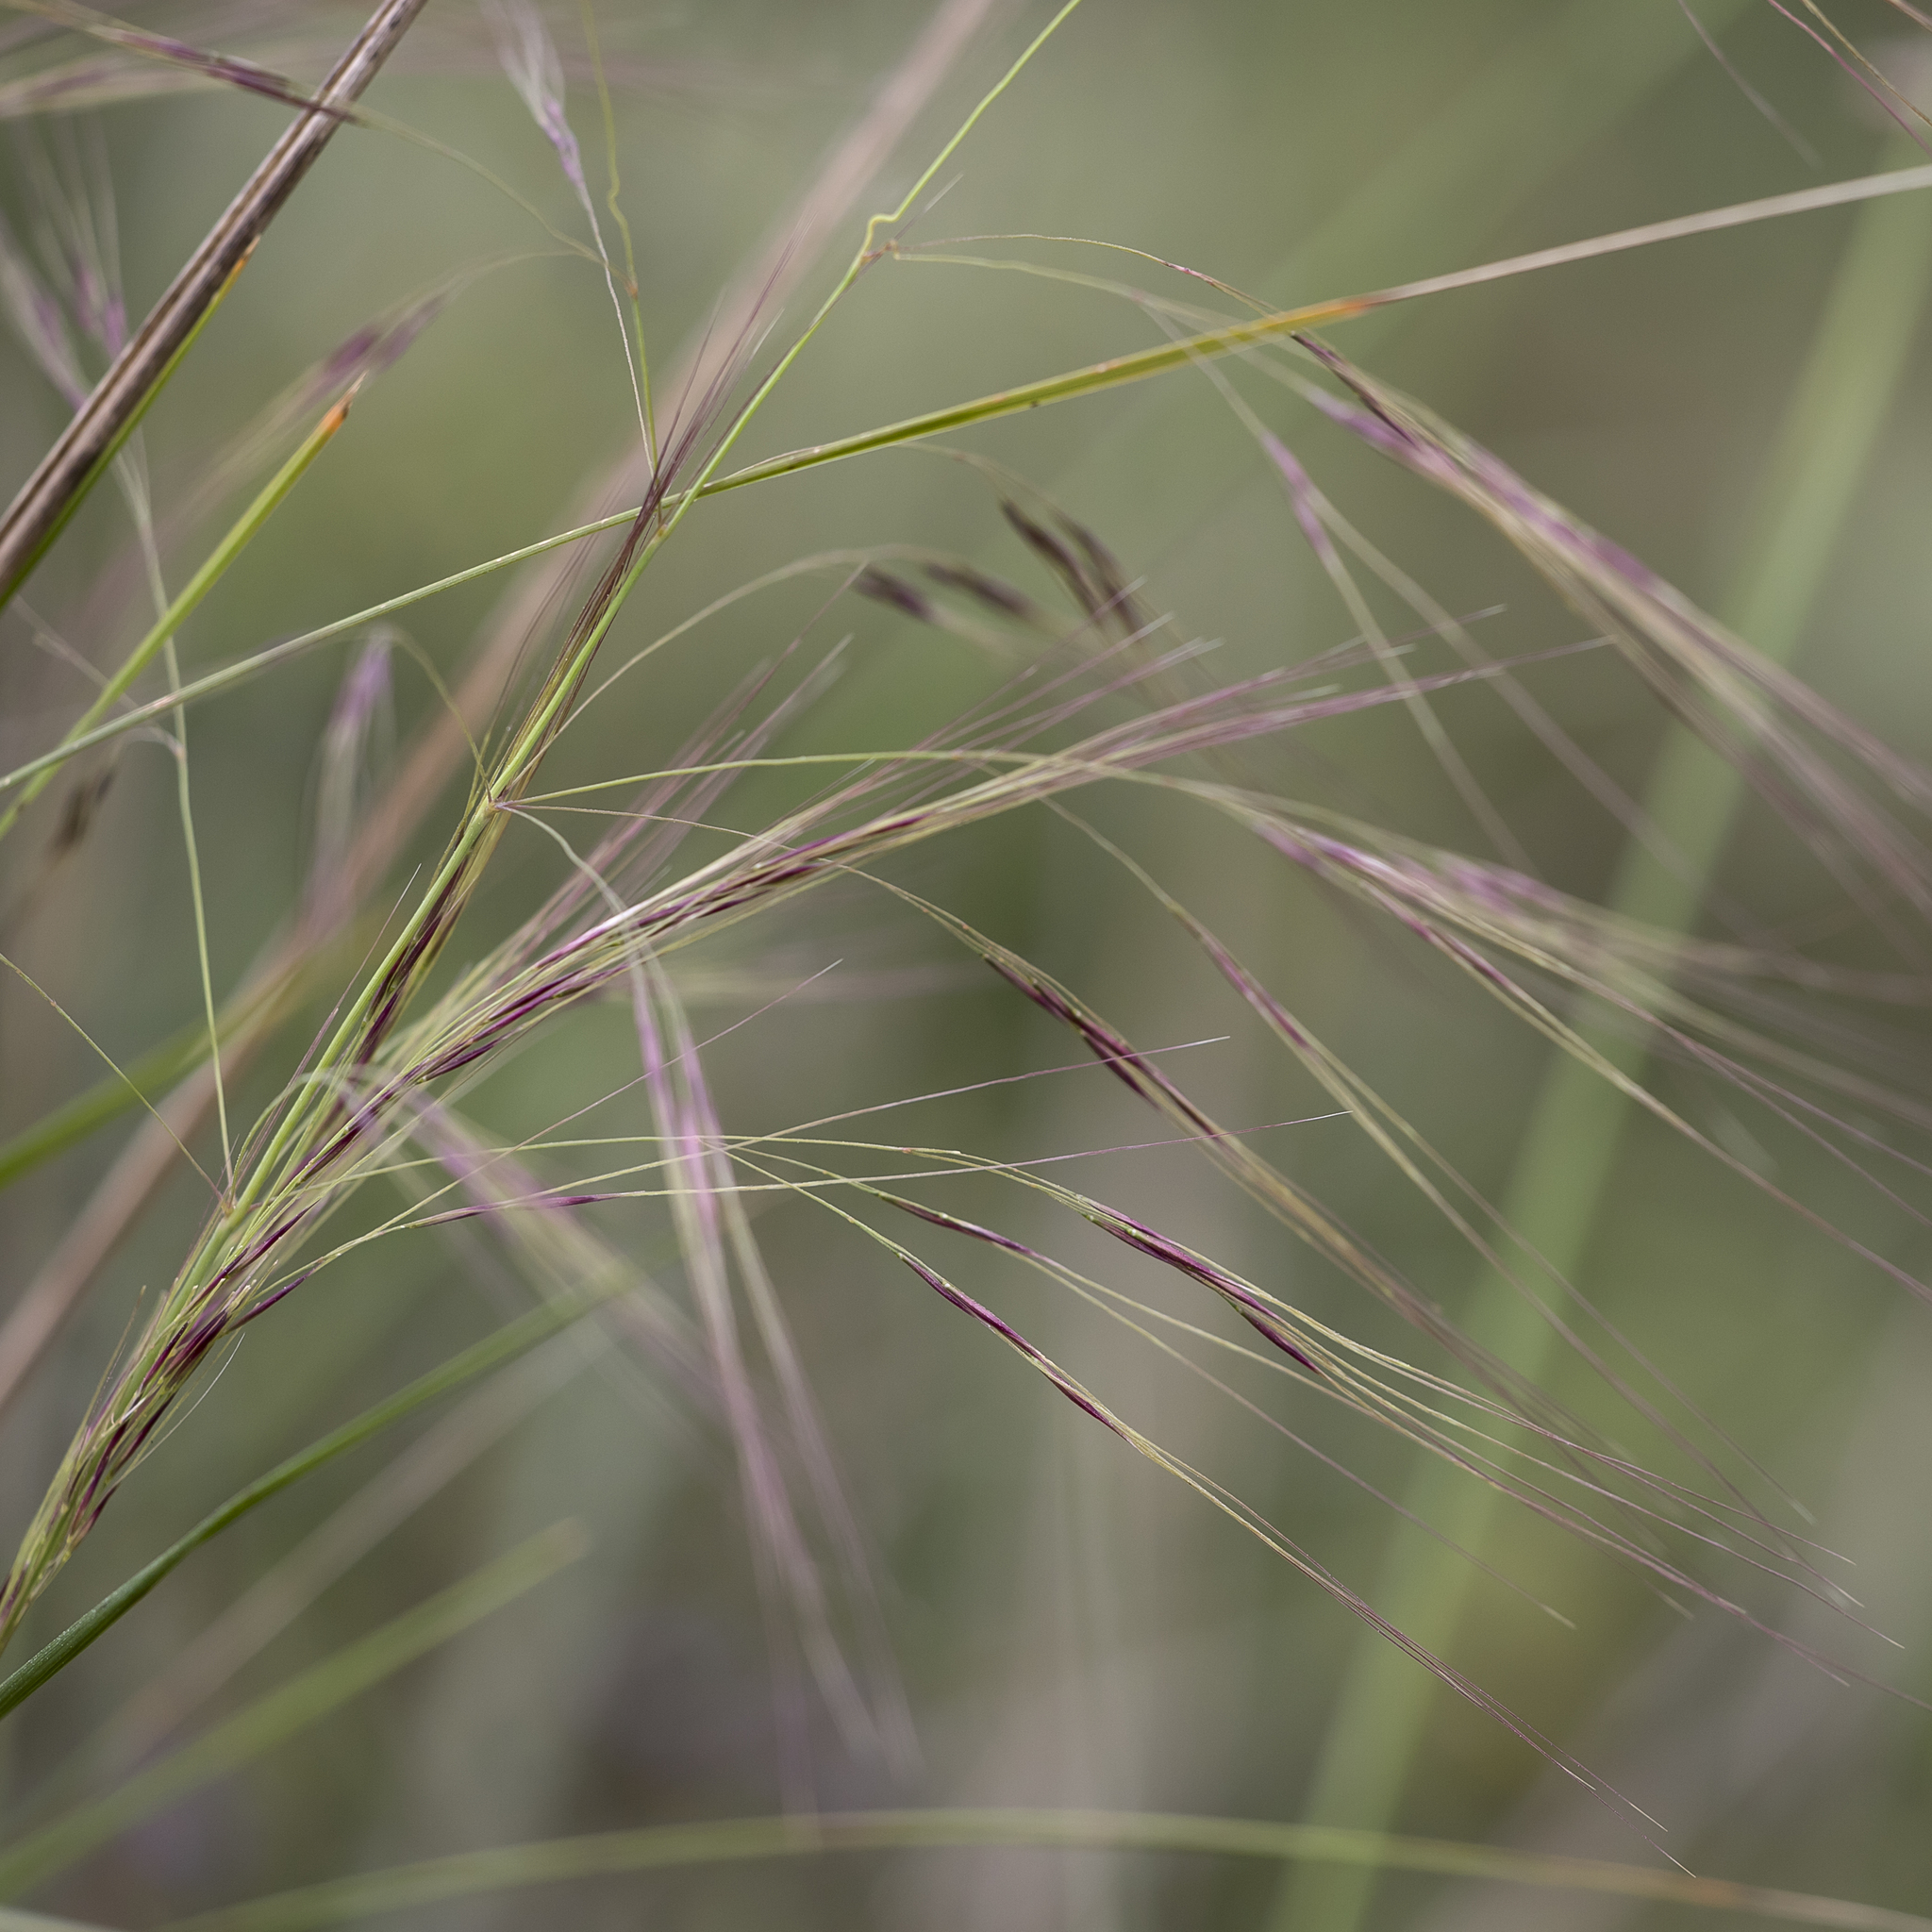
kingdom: Plantae
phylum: Tracheophyta
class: Liliopsida
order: Poales
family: Poaceae
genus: Austrostipa
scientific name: Austrostipa acrociliata
